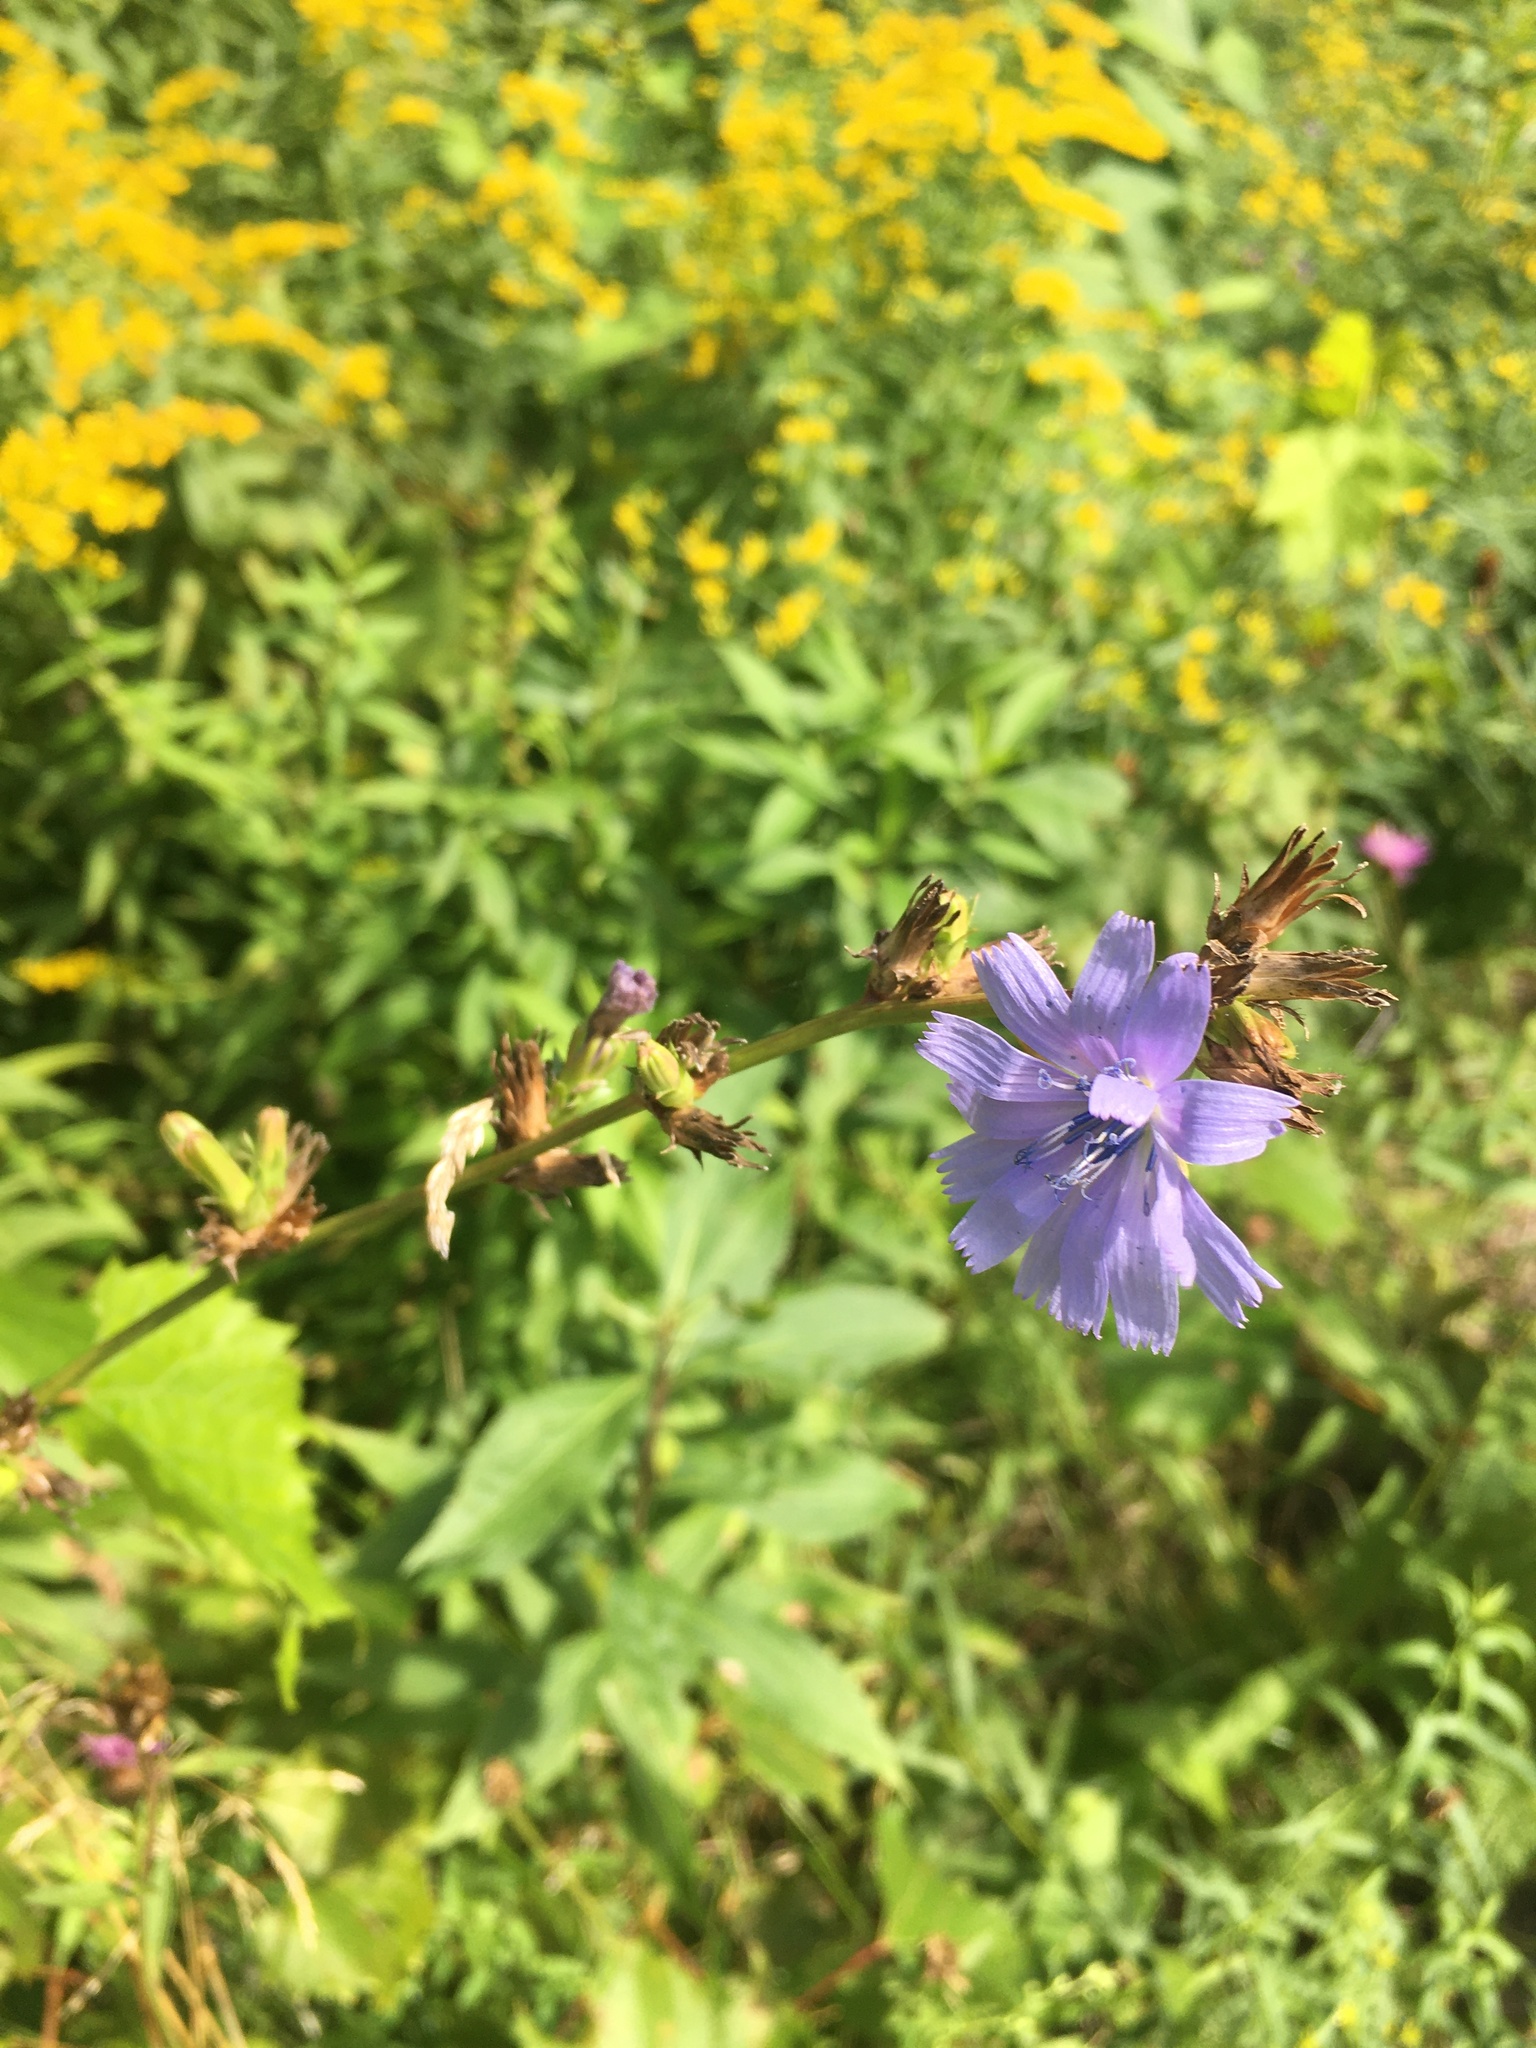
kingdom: Plantae
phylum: Tracheophyta
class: Magnoliopsida
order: Asterales
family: Asteraceae
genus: Cichorium
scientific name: Cichorium intybus
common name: Chicory
